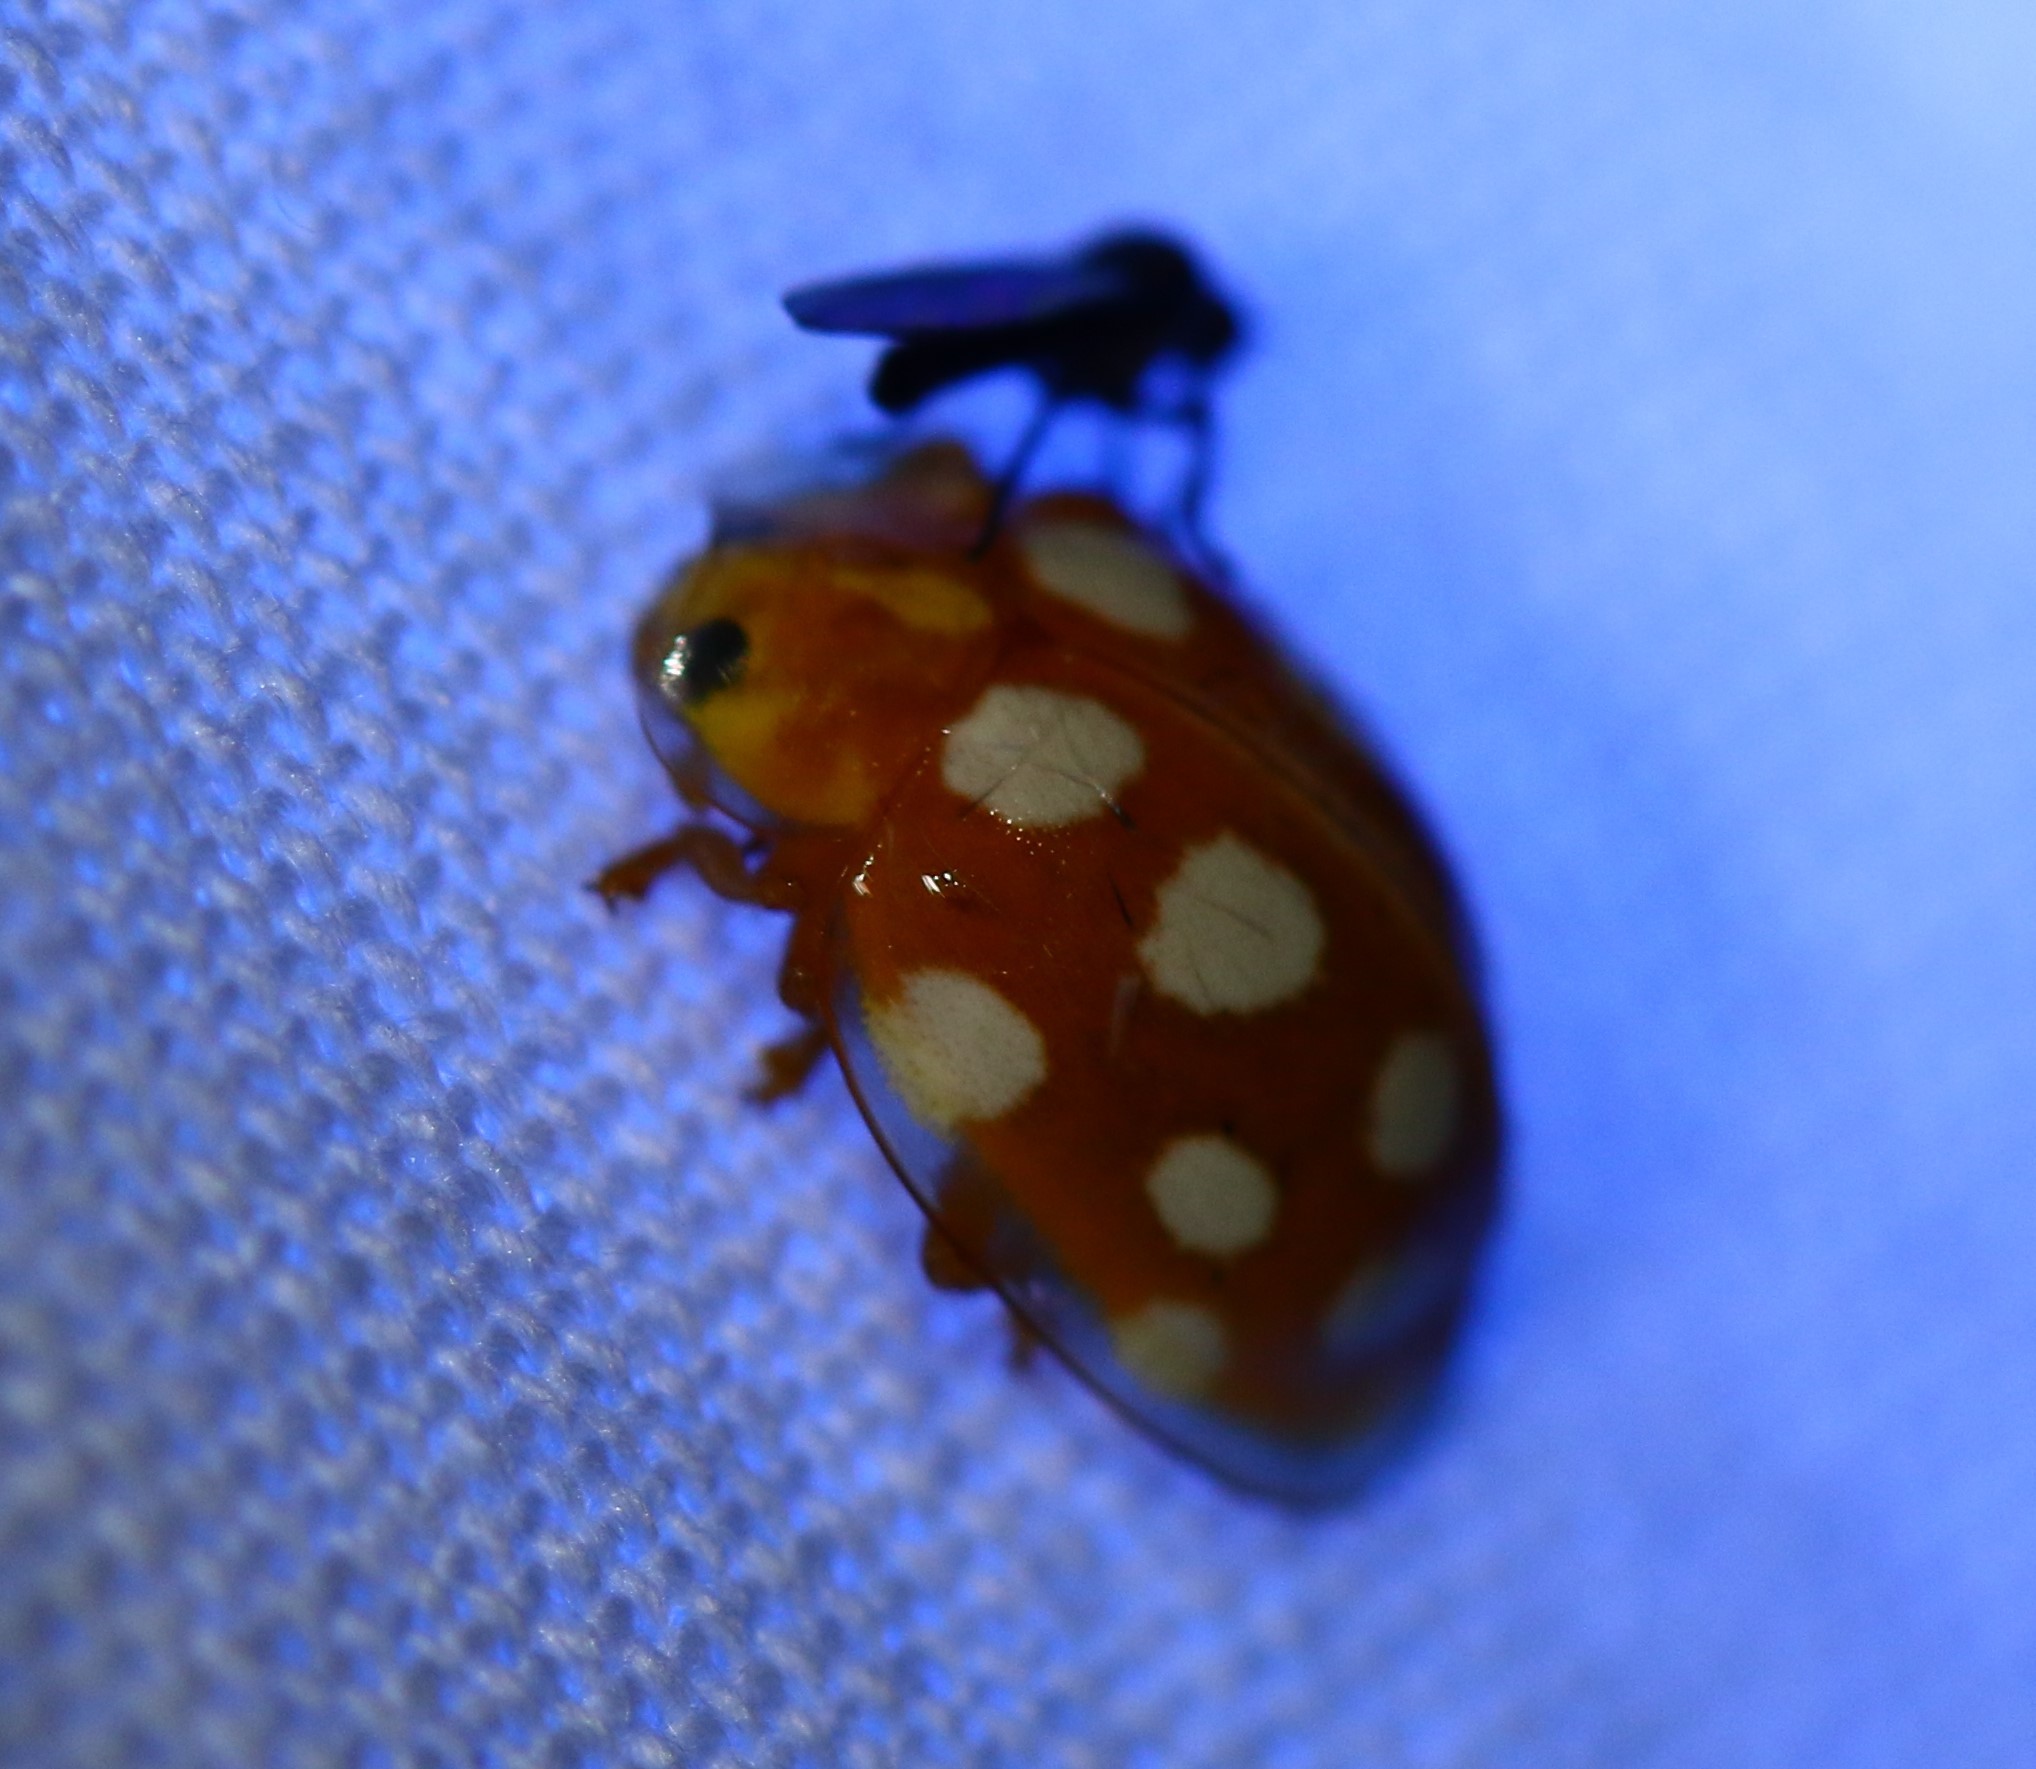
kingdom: Animalia
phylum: Arthropoda
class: Insecta
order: Coleoptera
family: Coccinellidae
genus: Halyzia
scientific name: Halyzia sedecimguttata
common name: Orange ladybird
